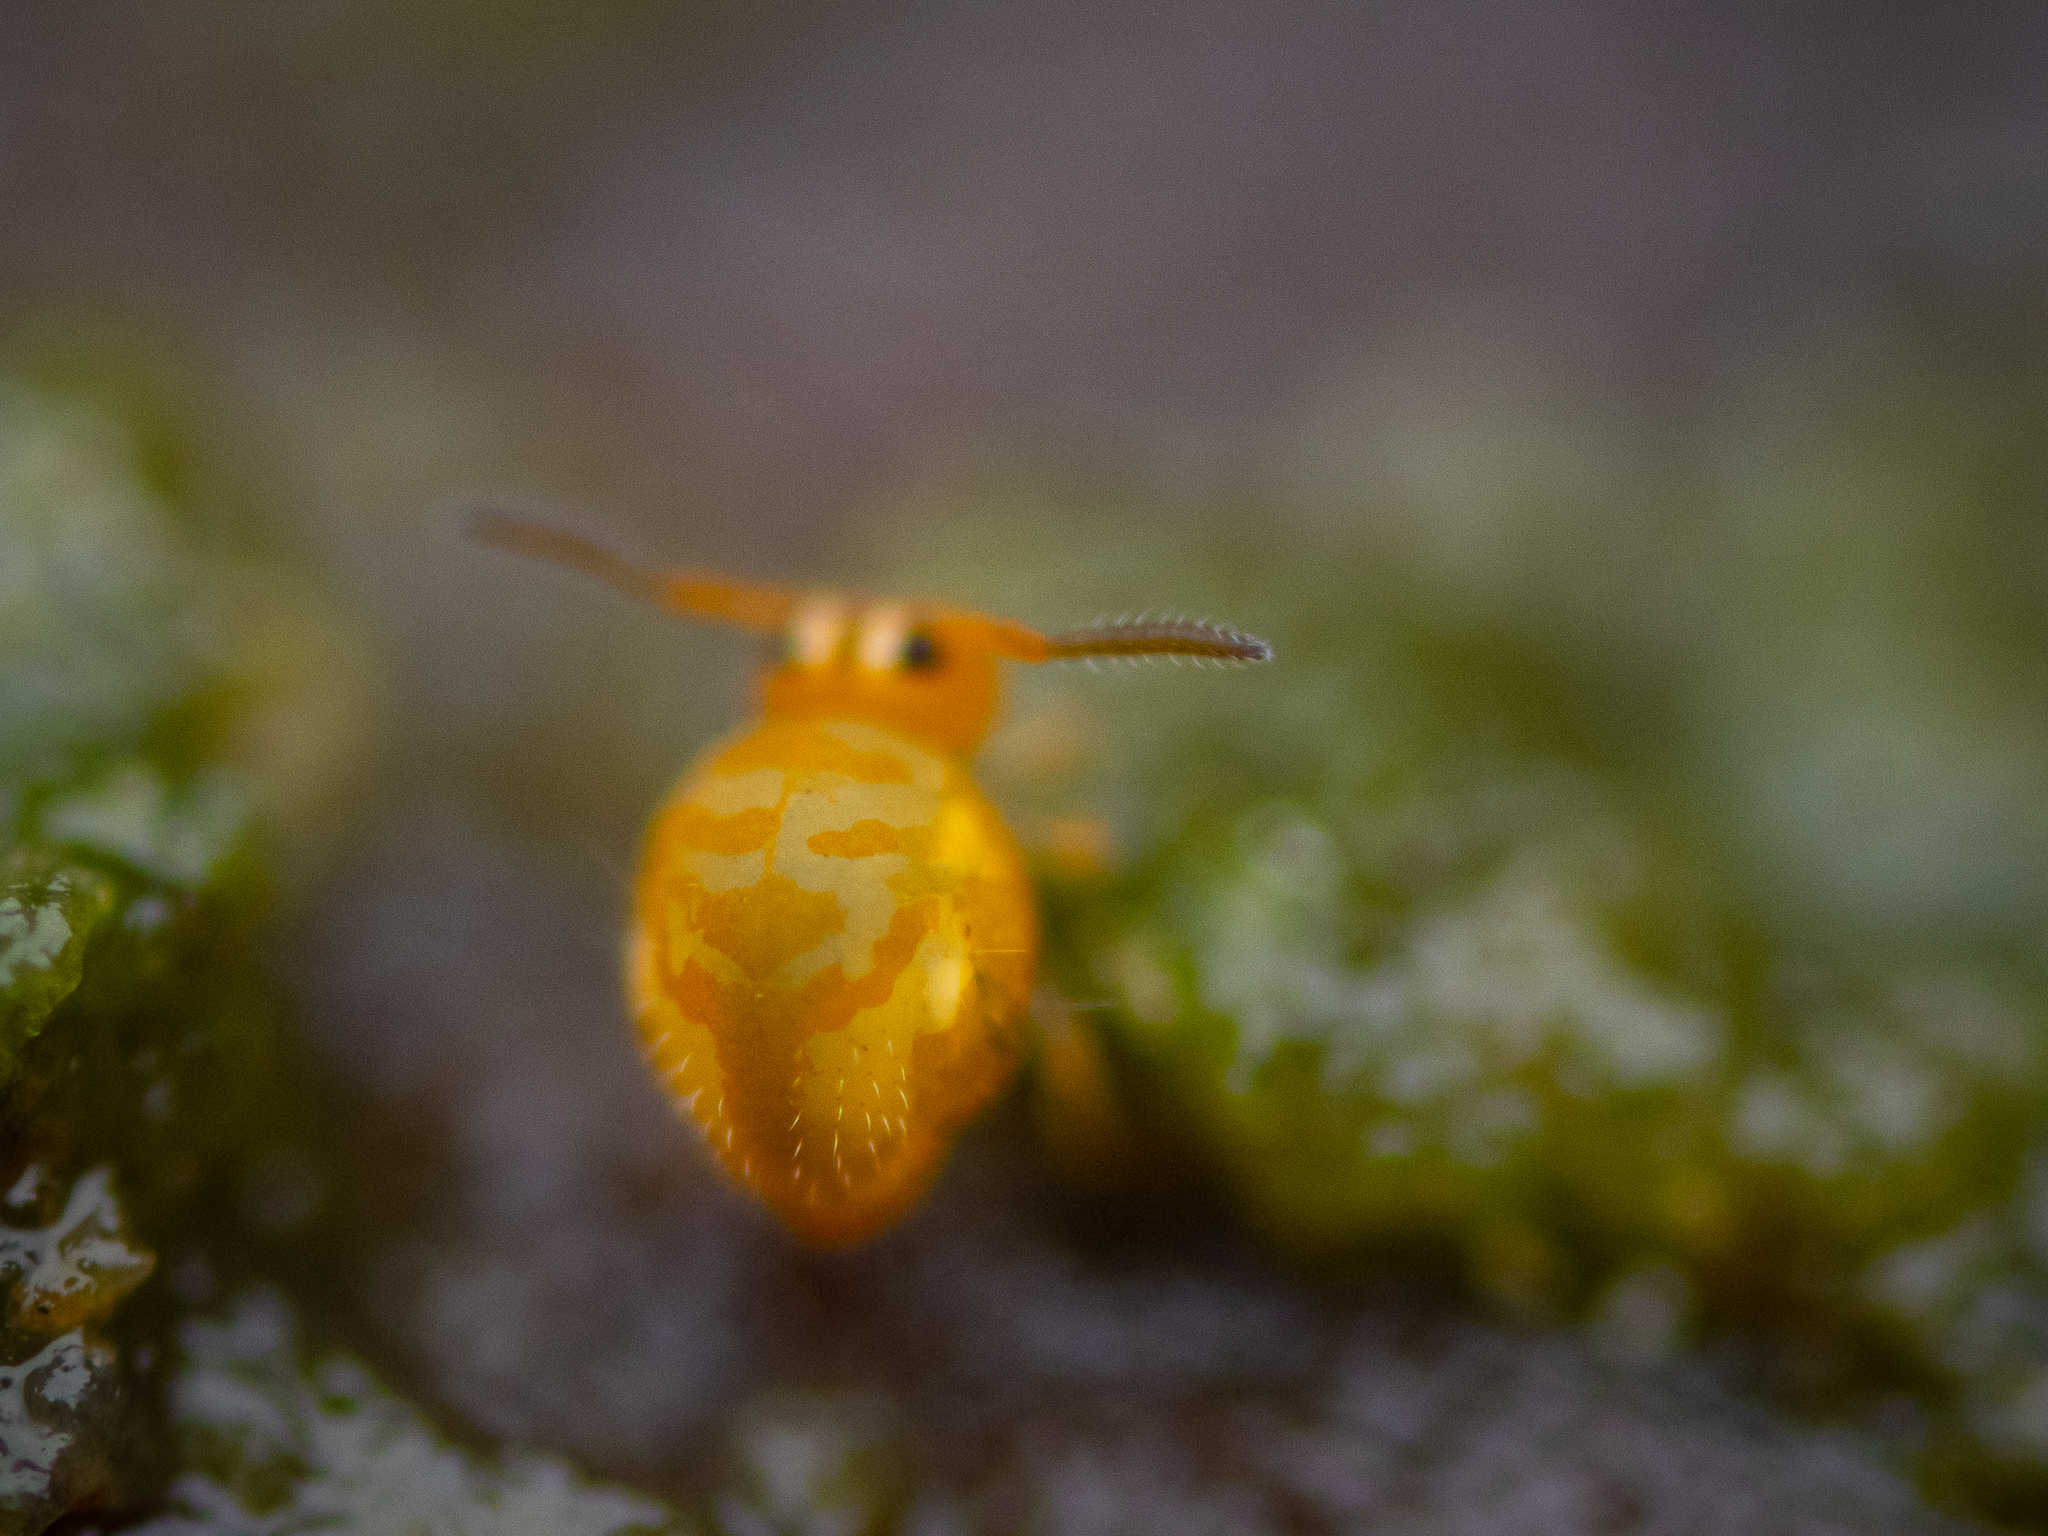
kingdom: Animalia
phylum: Arthropoda
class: Collembola
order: Symphypleona
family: Katiannidae
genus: Sminthurinus
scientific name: Sminthurinus aureus
